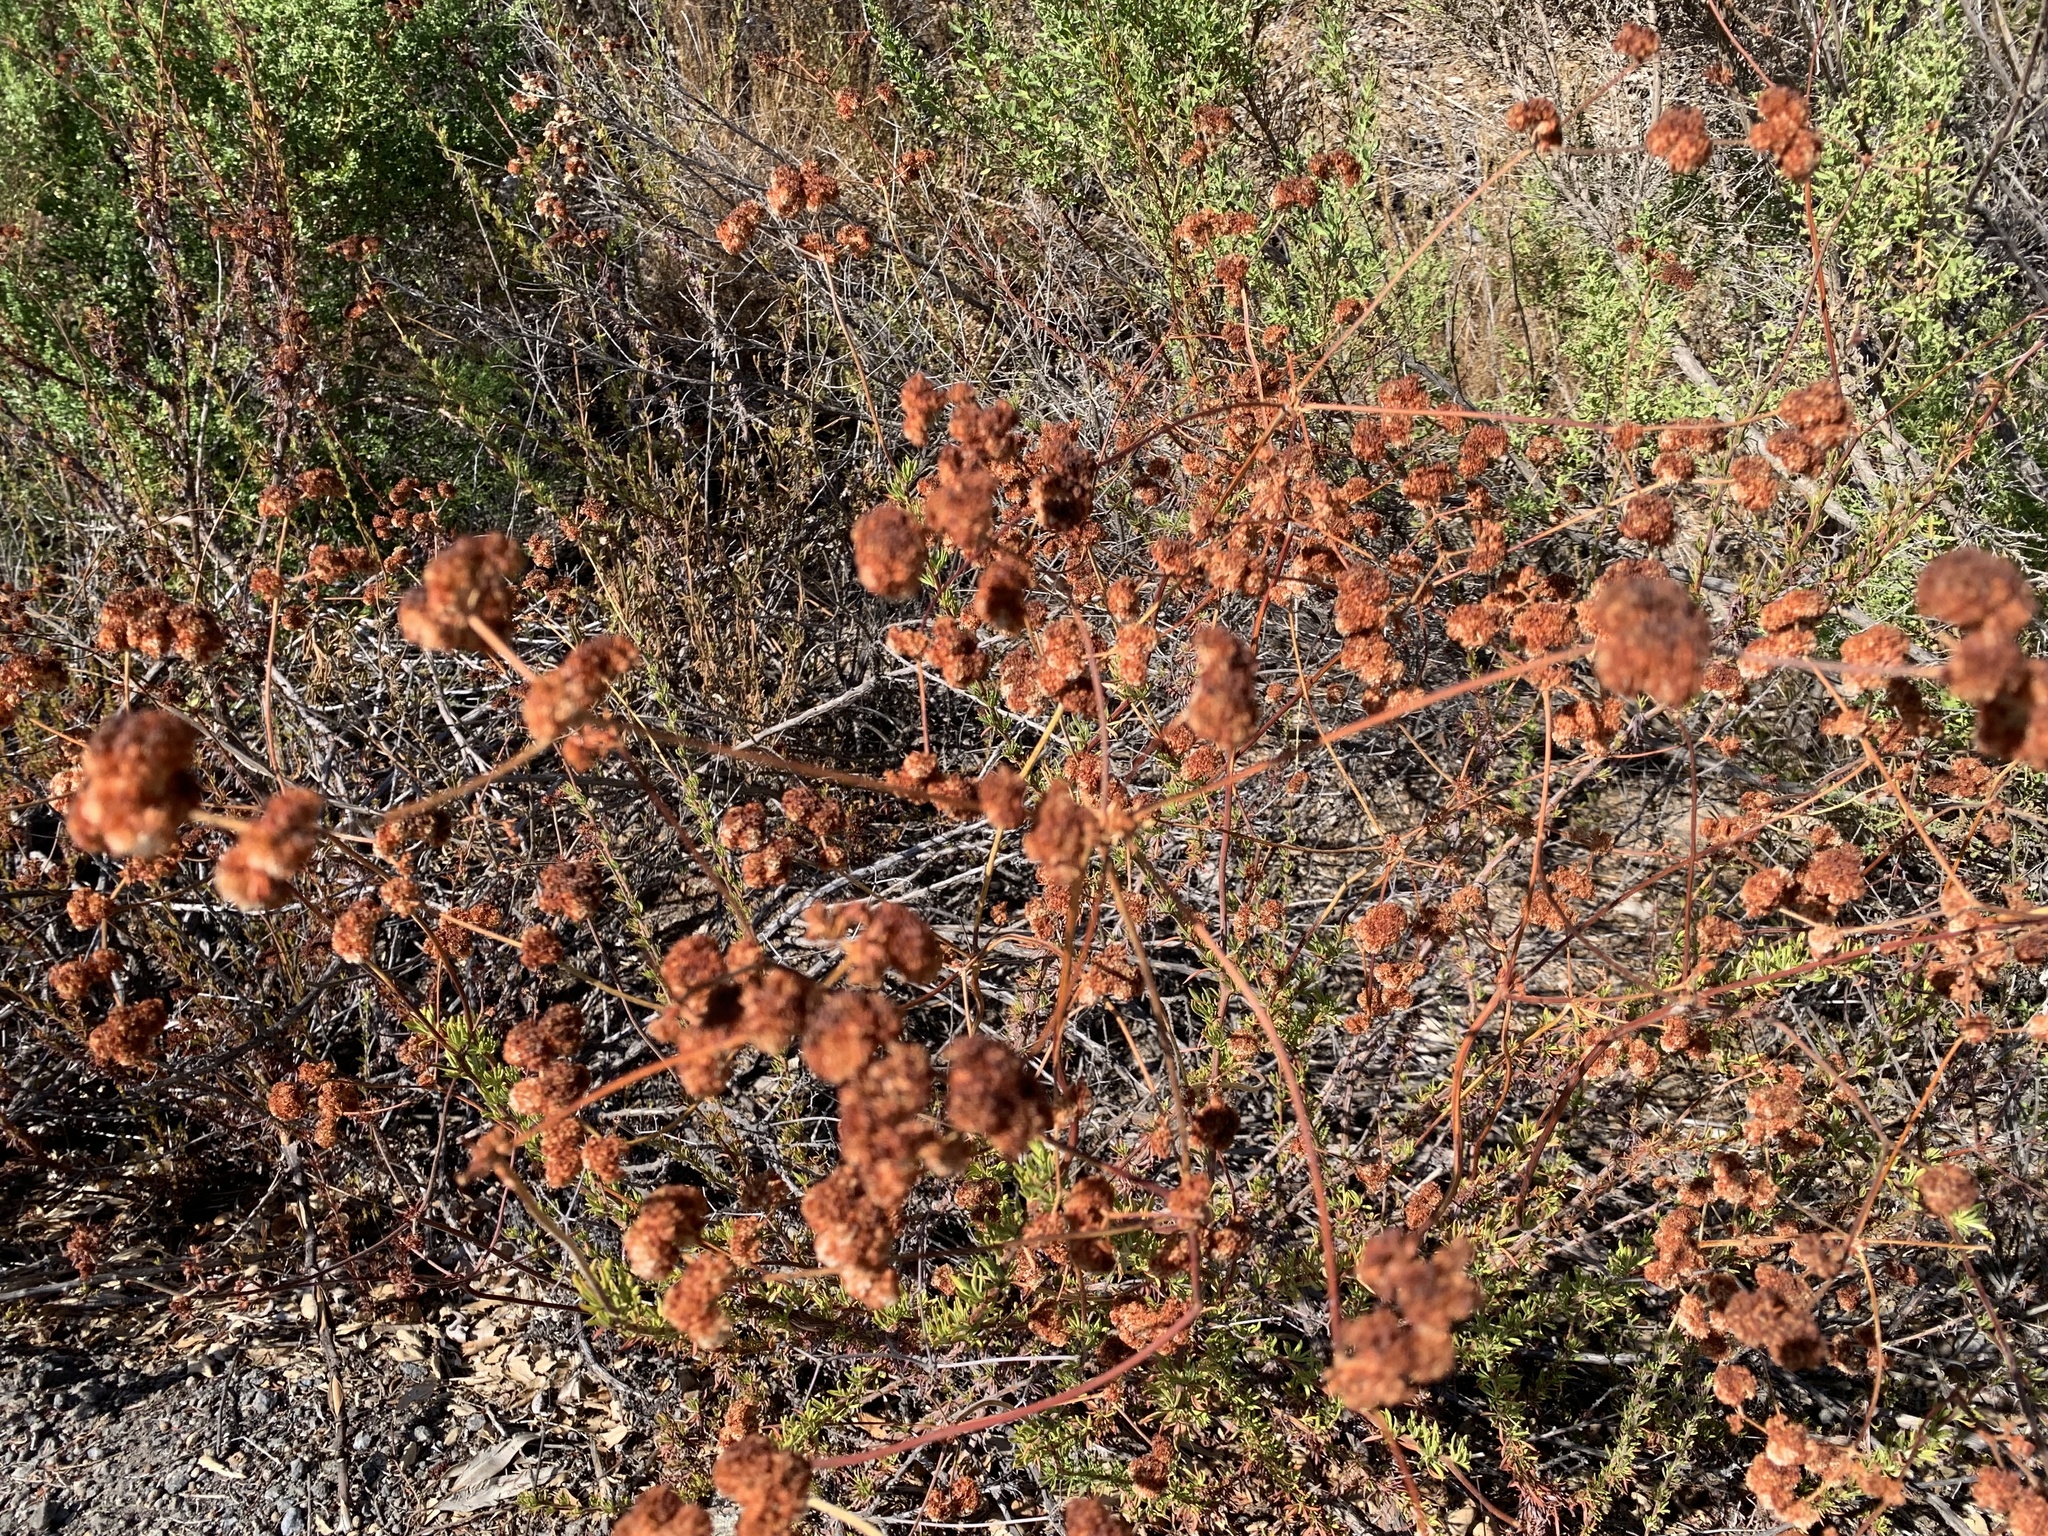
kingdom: Plantae
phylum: Tracheophyta
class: Magnoliopsida
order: Caryophyllales
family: Polygonaceae
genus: Eriogonum
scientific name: Eriogonum fasciculatum
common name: California wild buckwheat
